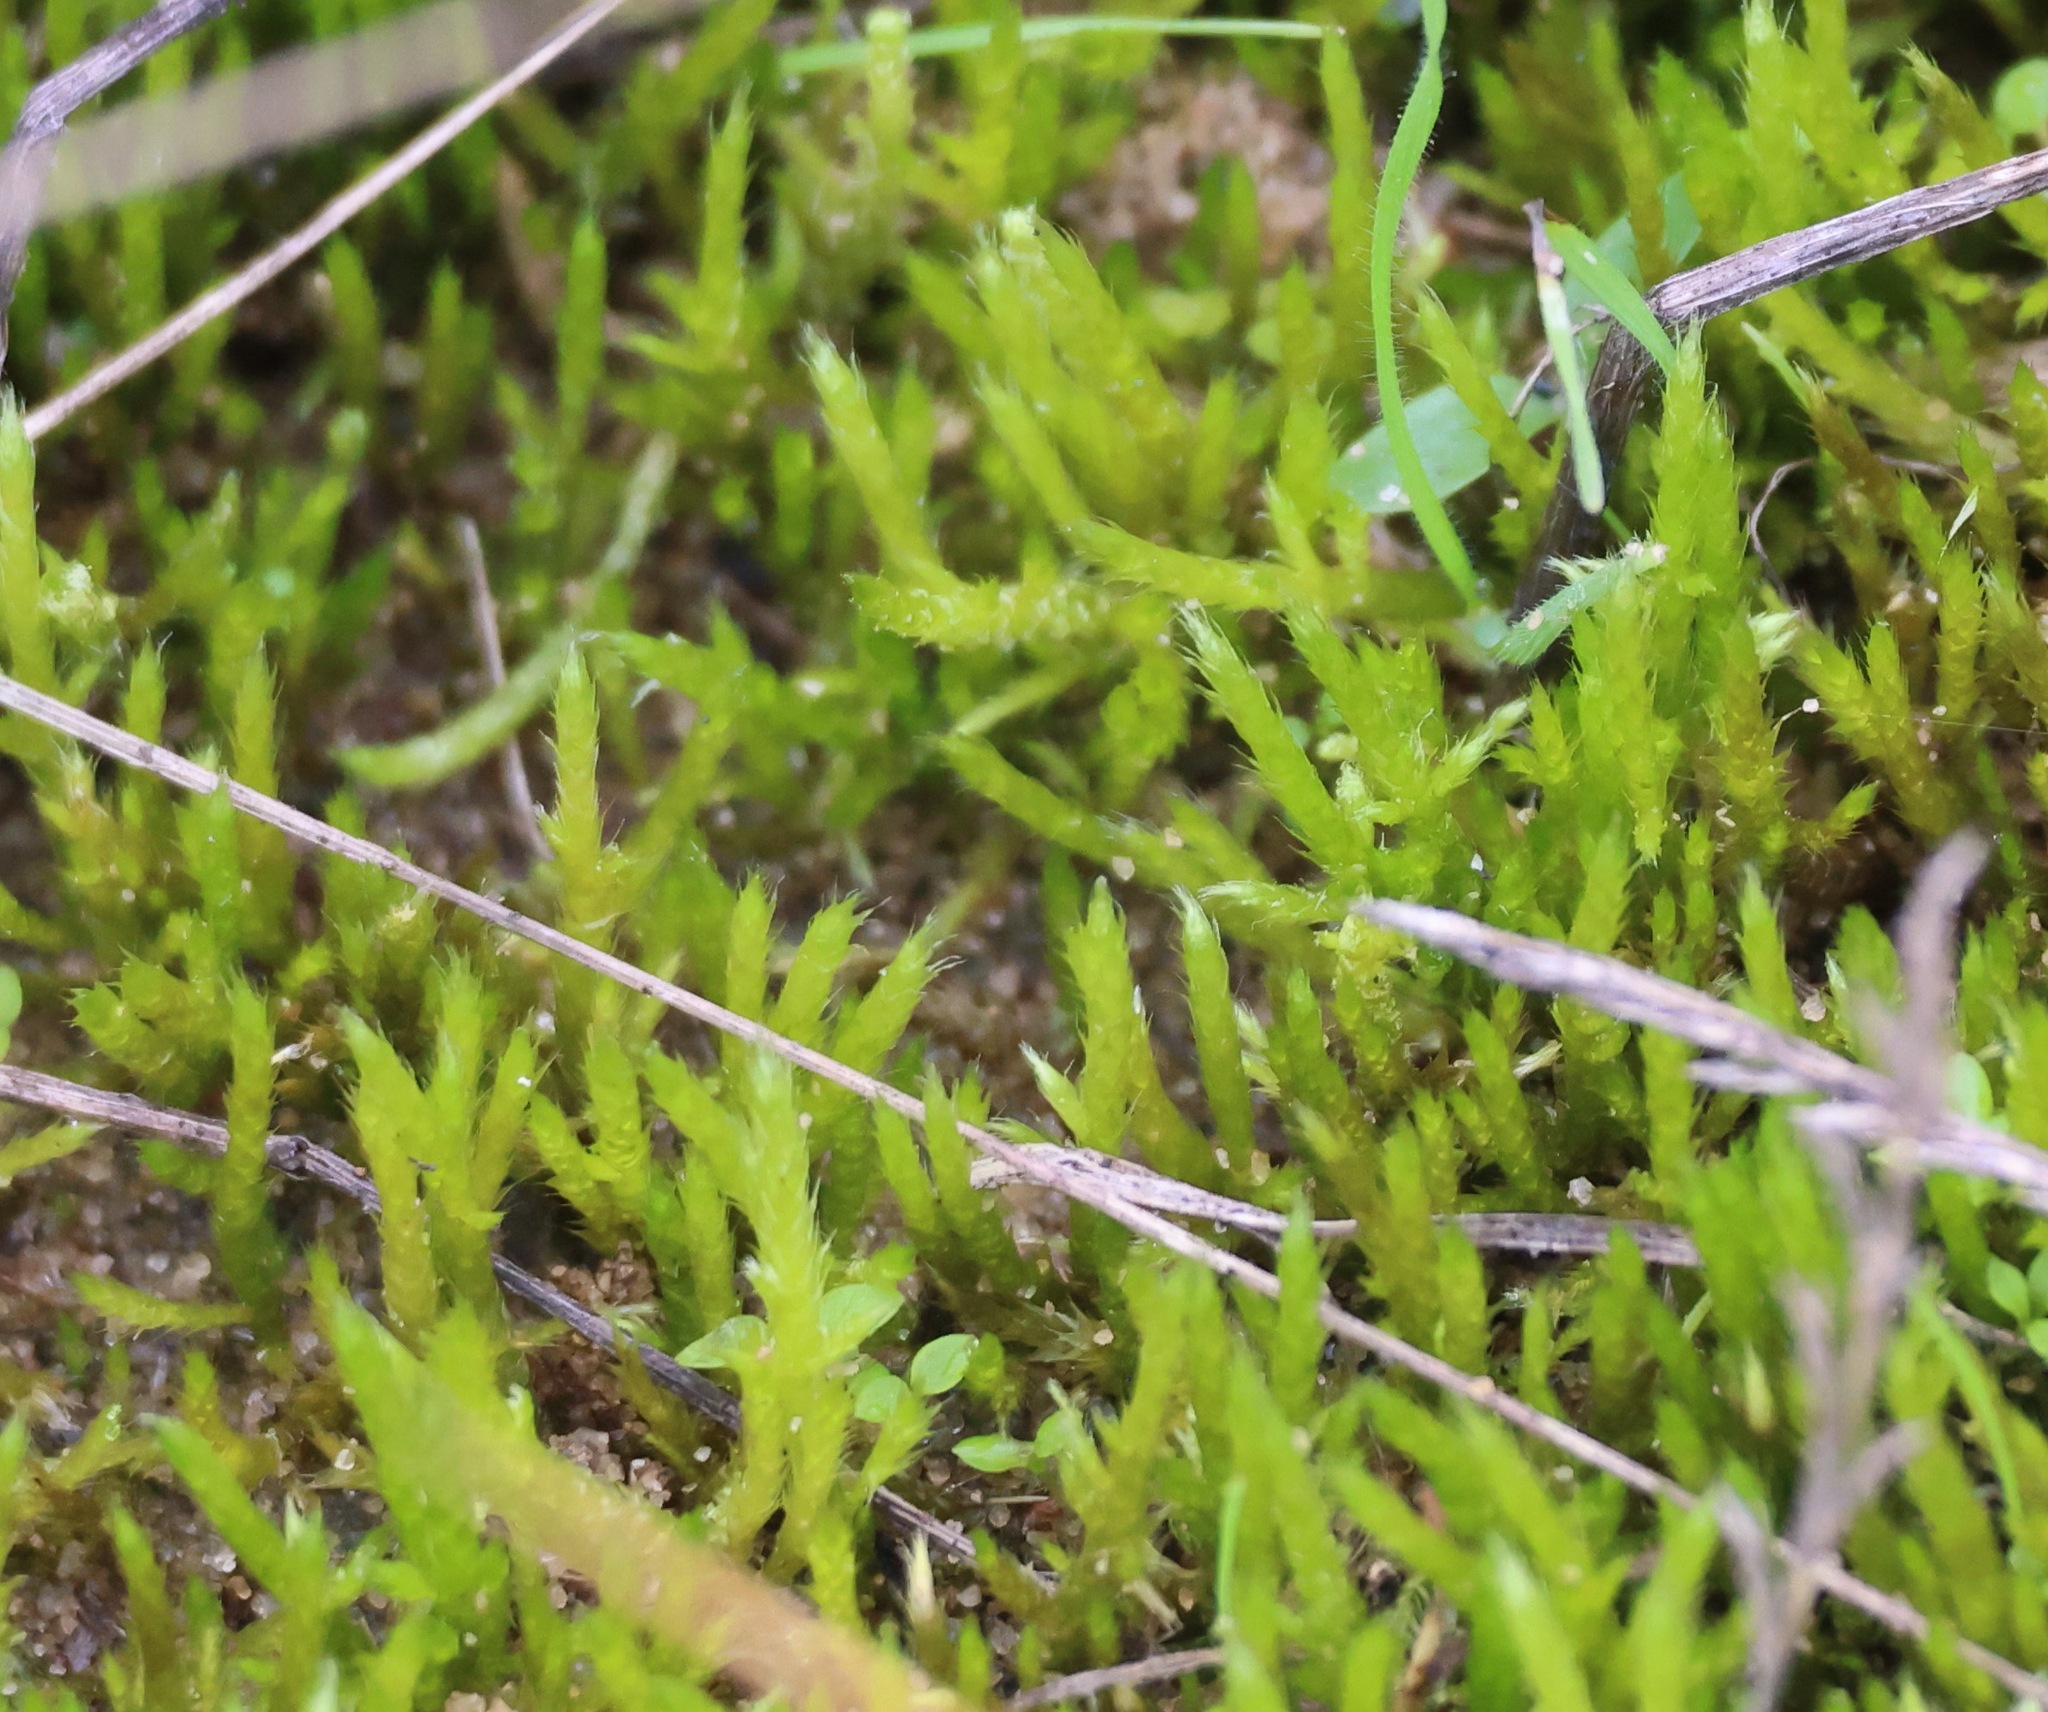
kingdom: Plantae
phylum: Bryophyta
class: Bryopsida
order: Hypnales
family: Brachytheciaceae
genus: Brachythecium
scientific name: Brachythecium albicans
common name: Whitish ragged moss
